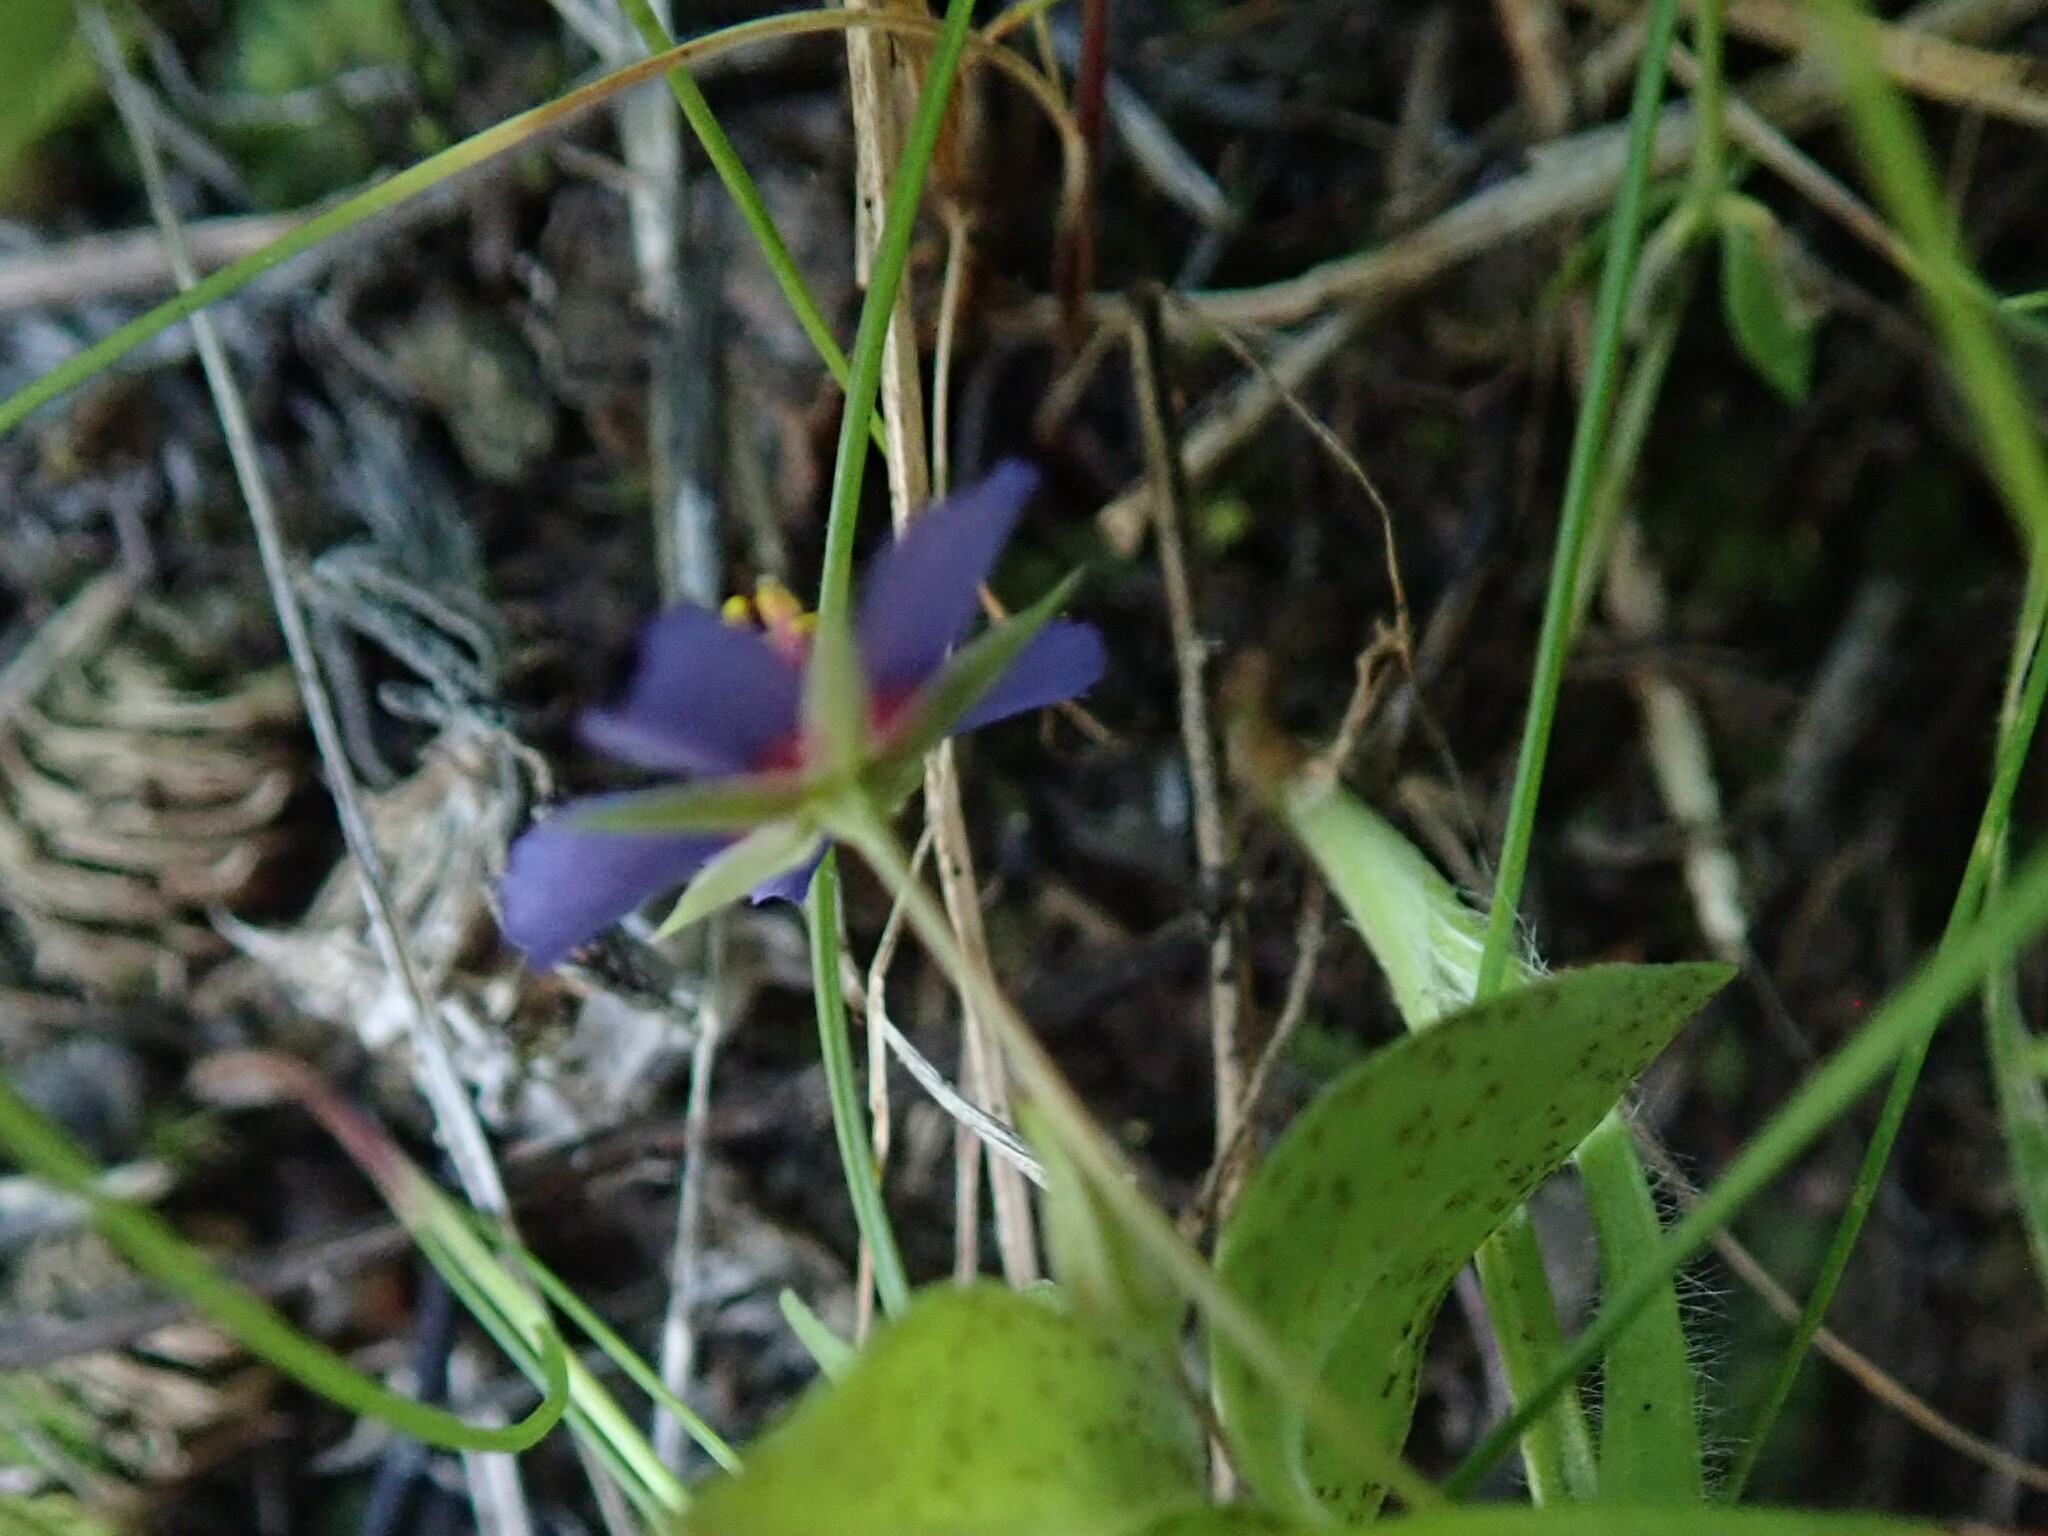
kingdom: Plantae
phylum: Tracheophyta
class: Magnoliopsida
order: Ericales
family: Primulaceae
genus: Lysimachia
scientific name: Lysimachia loeflingii
